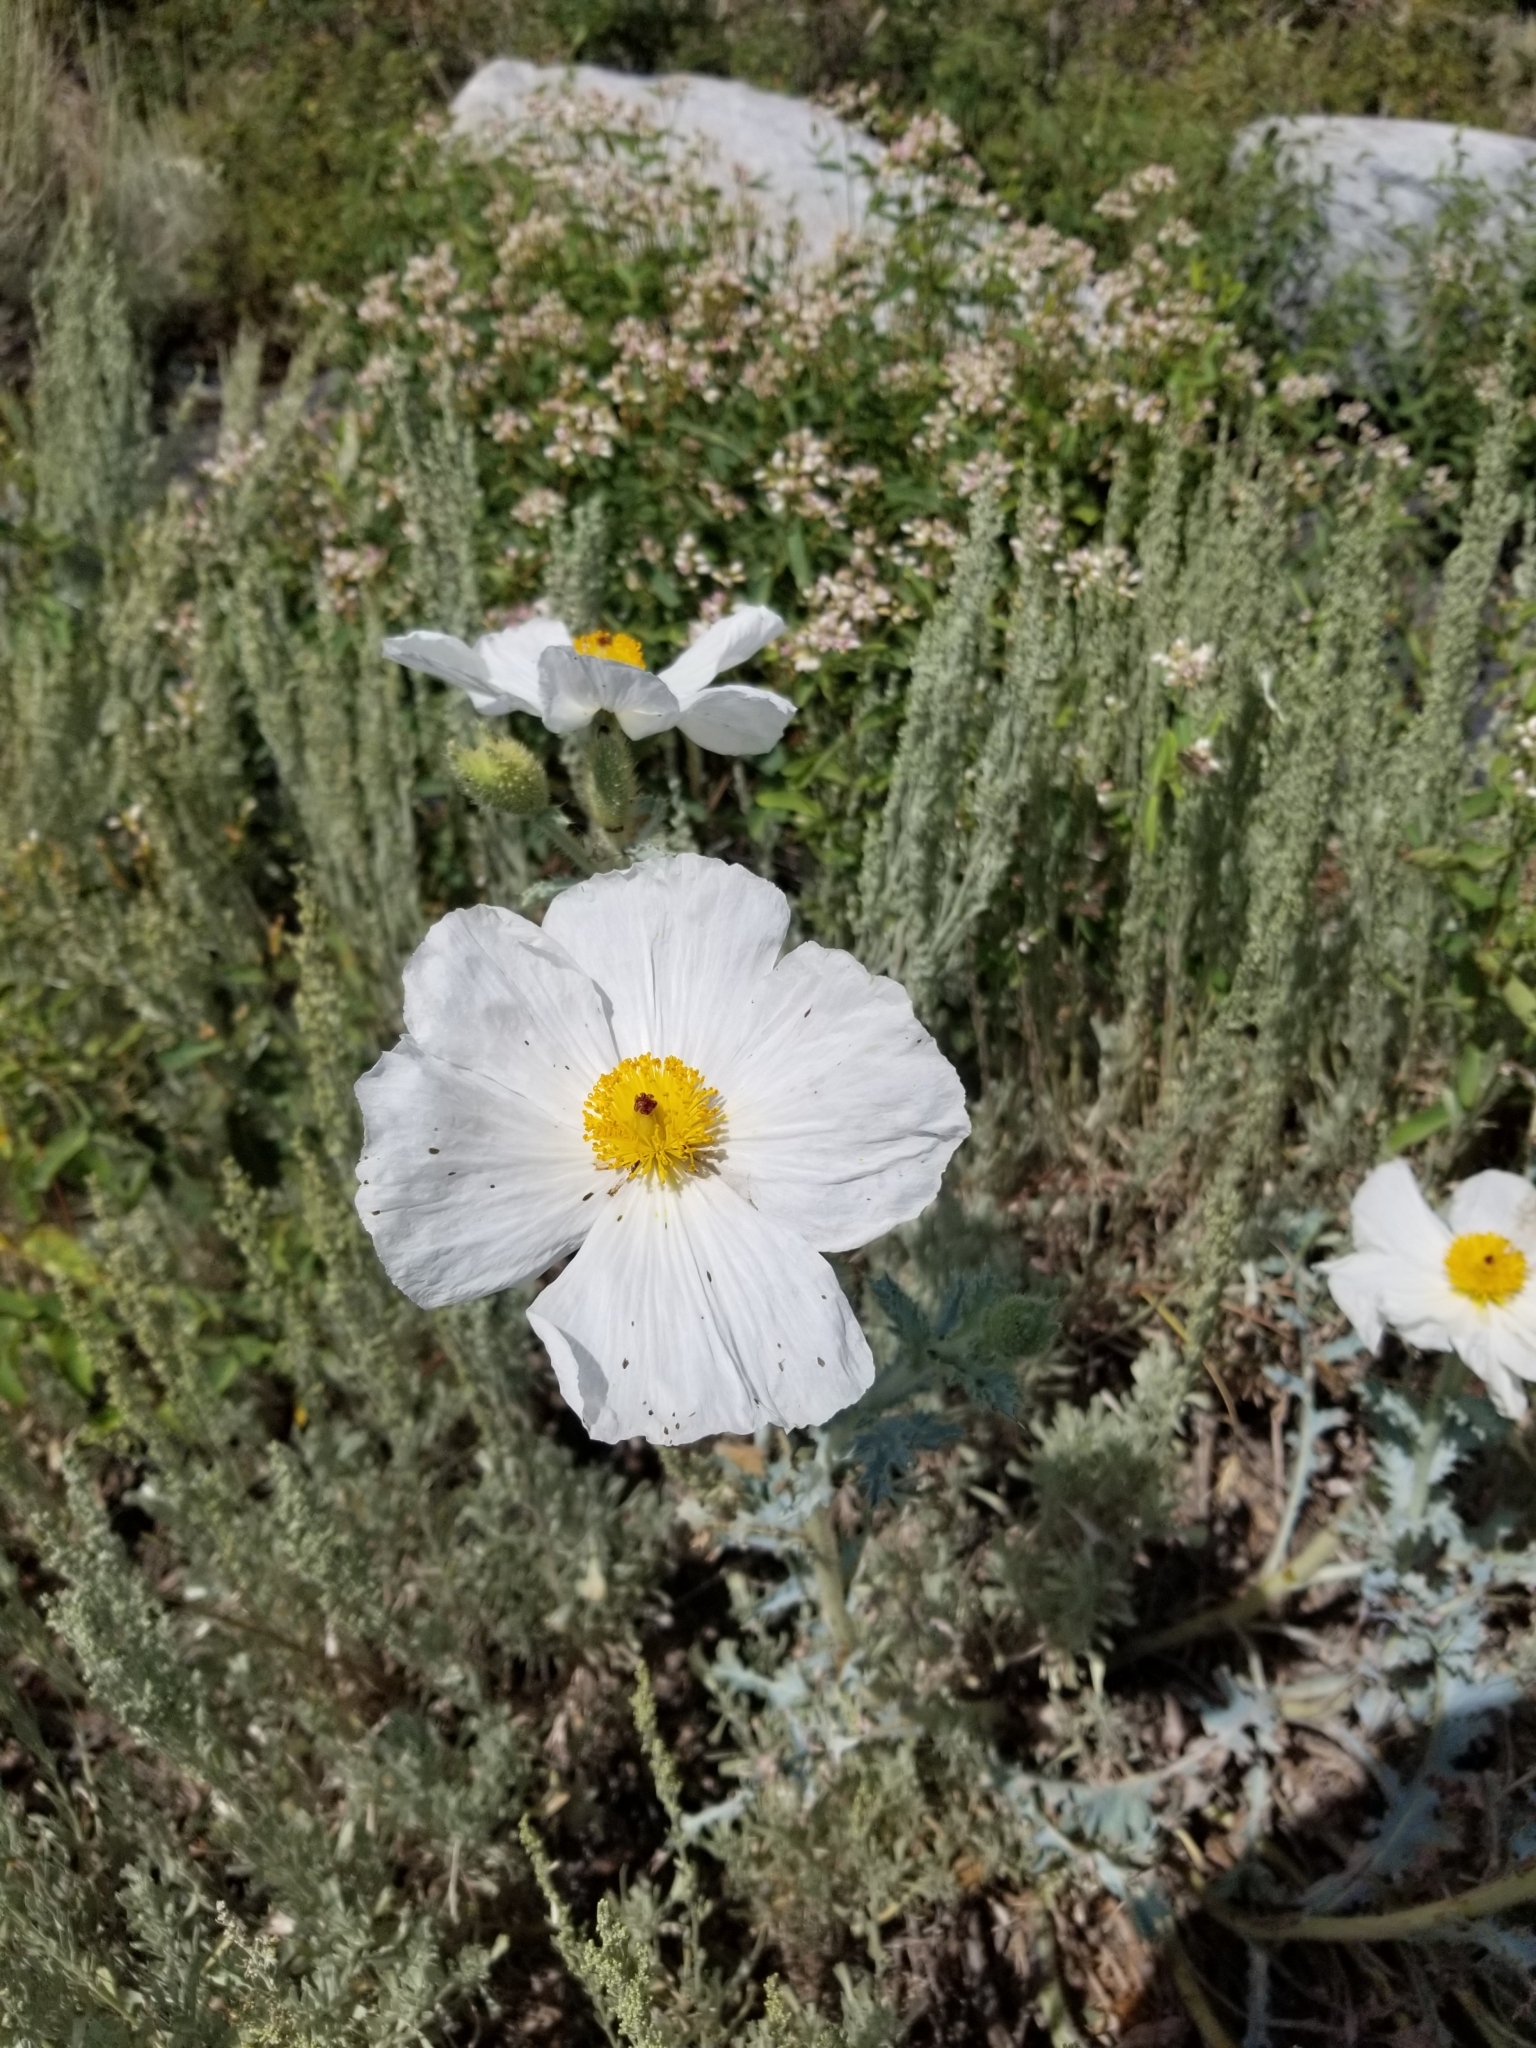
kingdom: Plantae
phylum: Tracheophyta
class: Magnoliopsida
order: Ranunculales
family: Papaveraceae
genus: Argemone
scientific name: Argemone munita
